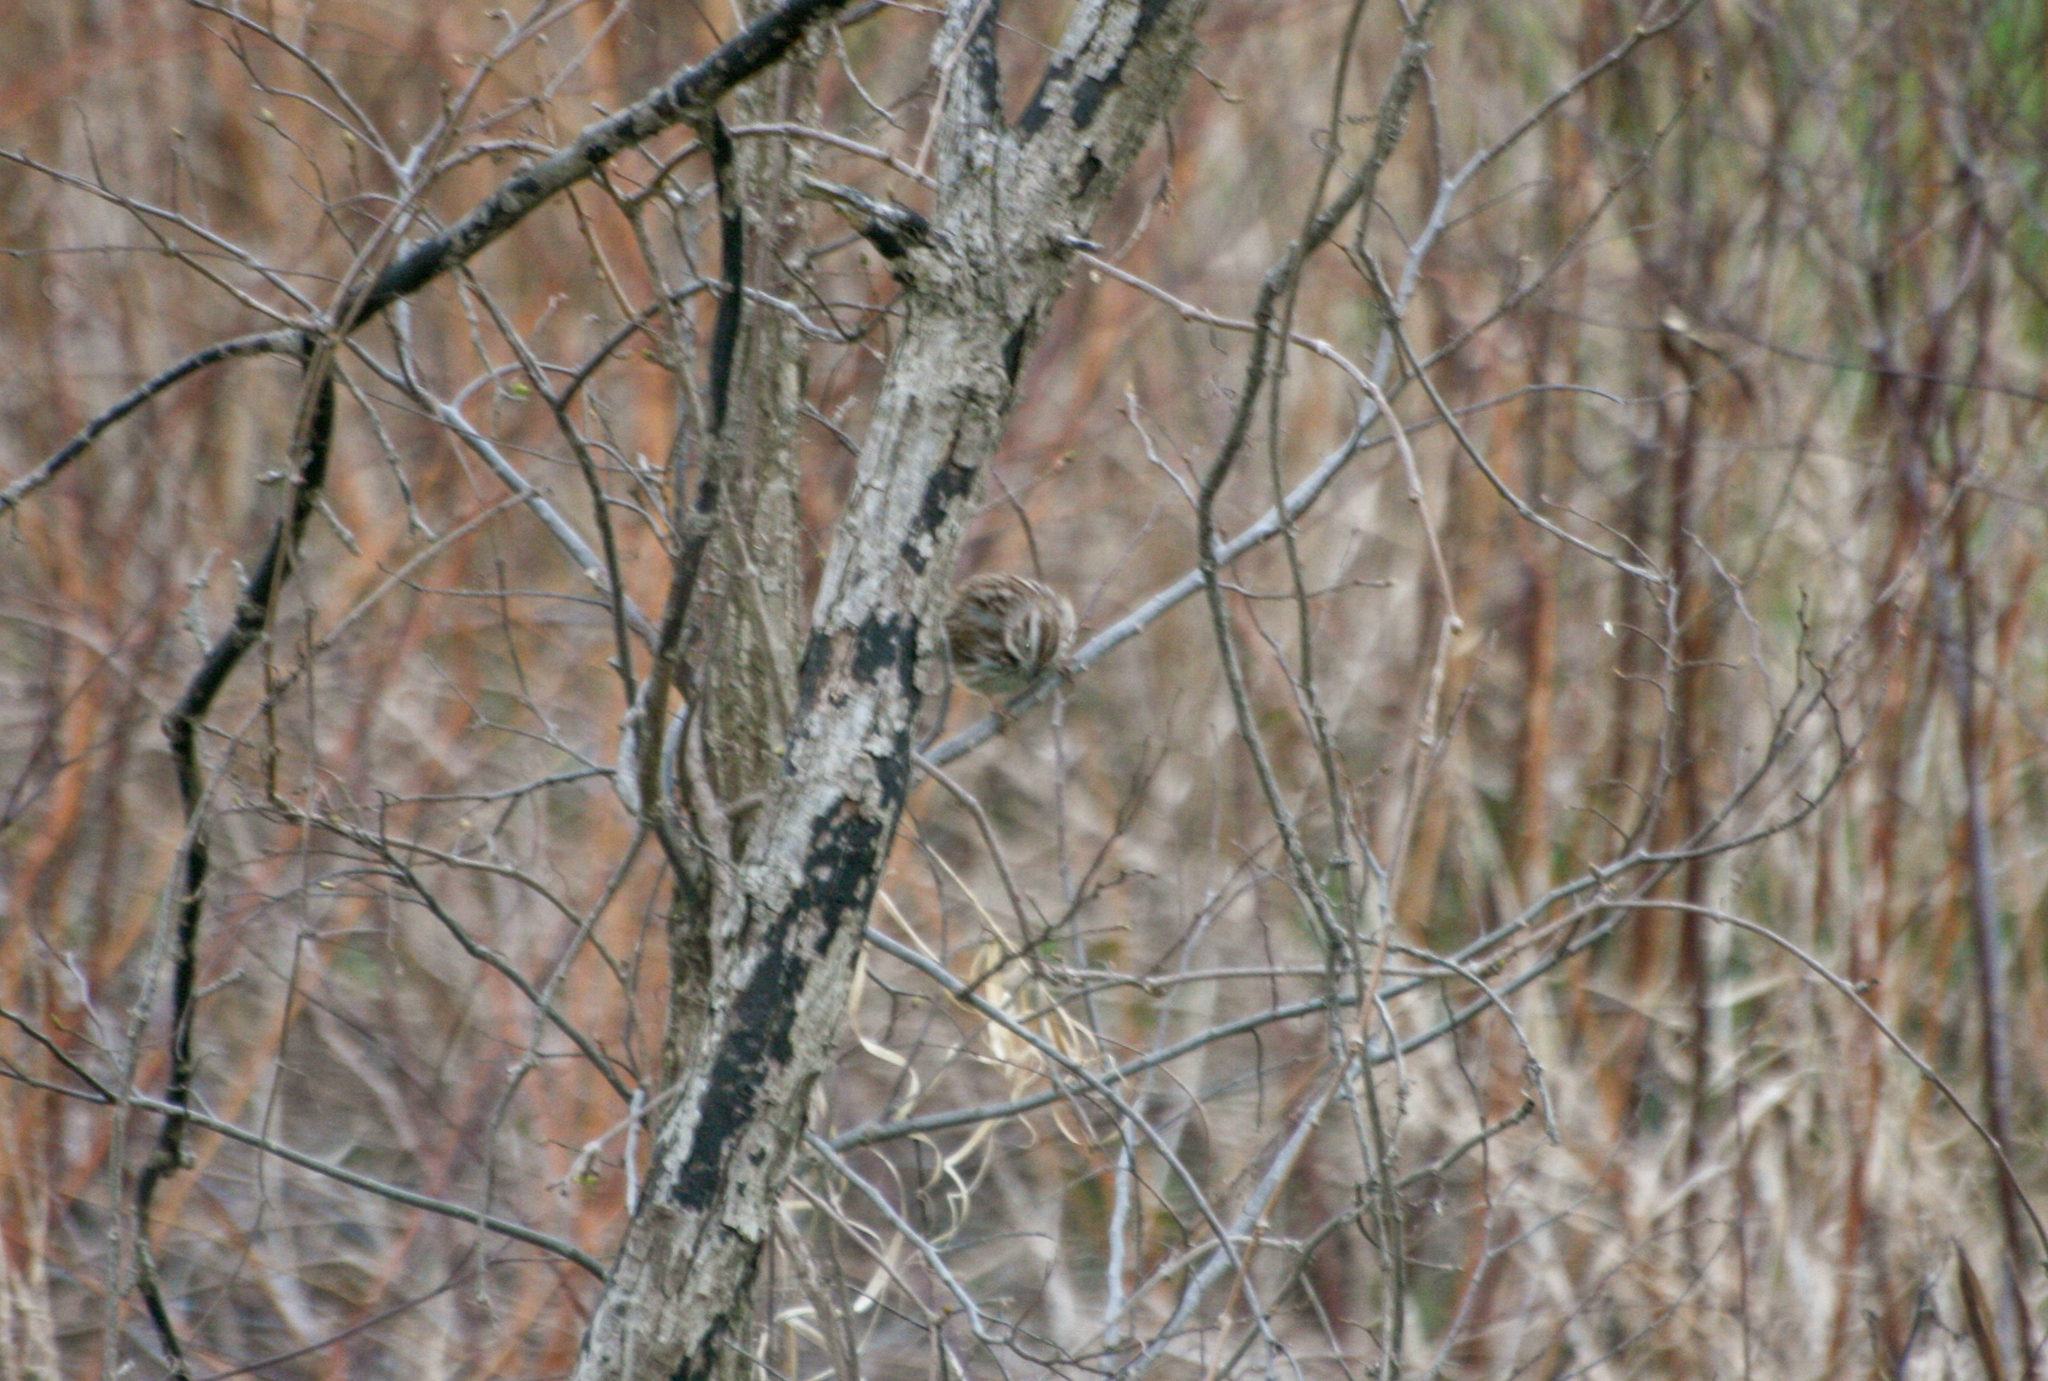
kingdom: Animalia
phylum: Chordata
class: Aves
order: Passeriformes
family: Passerellidae
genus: Melospiza
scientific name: Melospiza melodia
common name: Song sparrow
